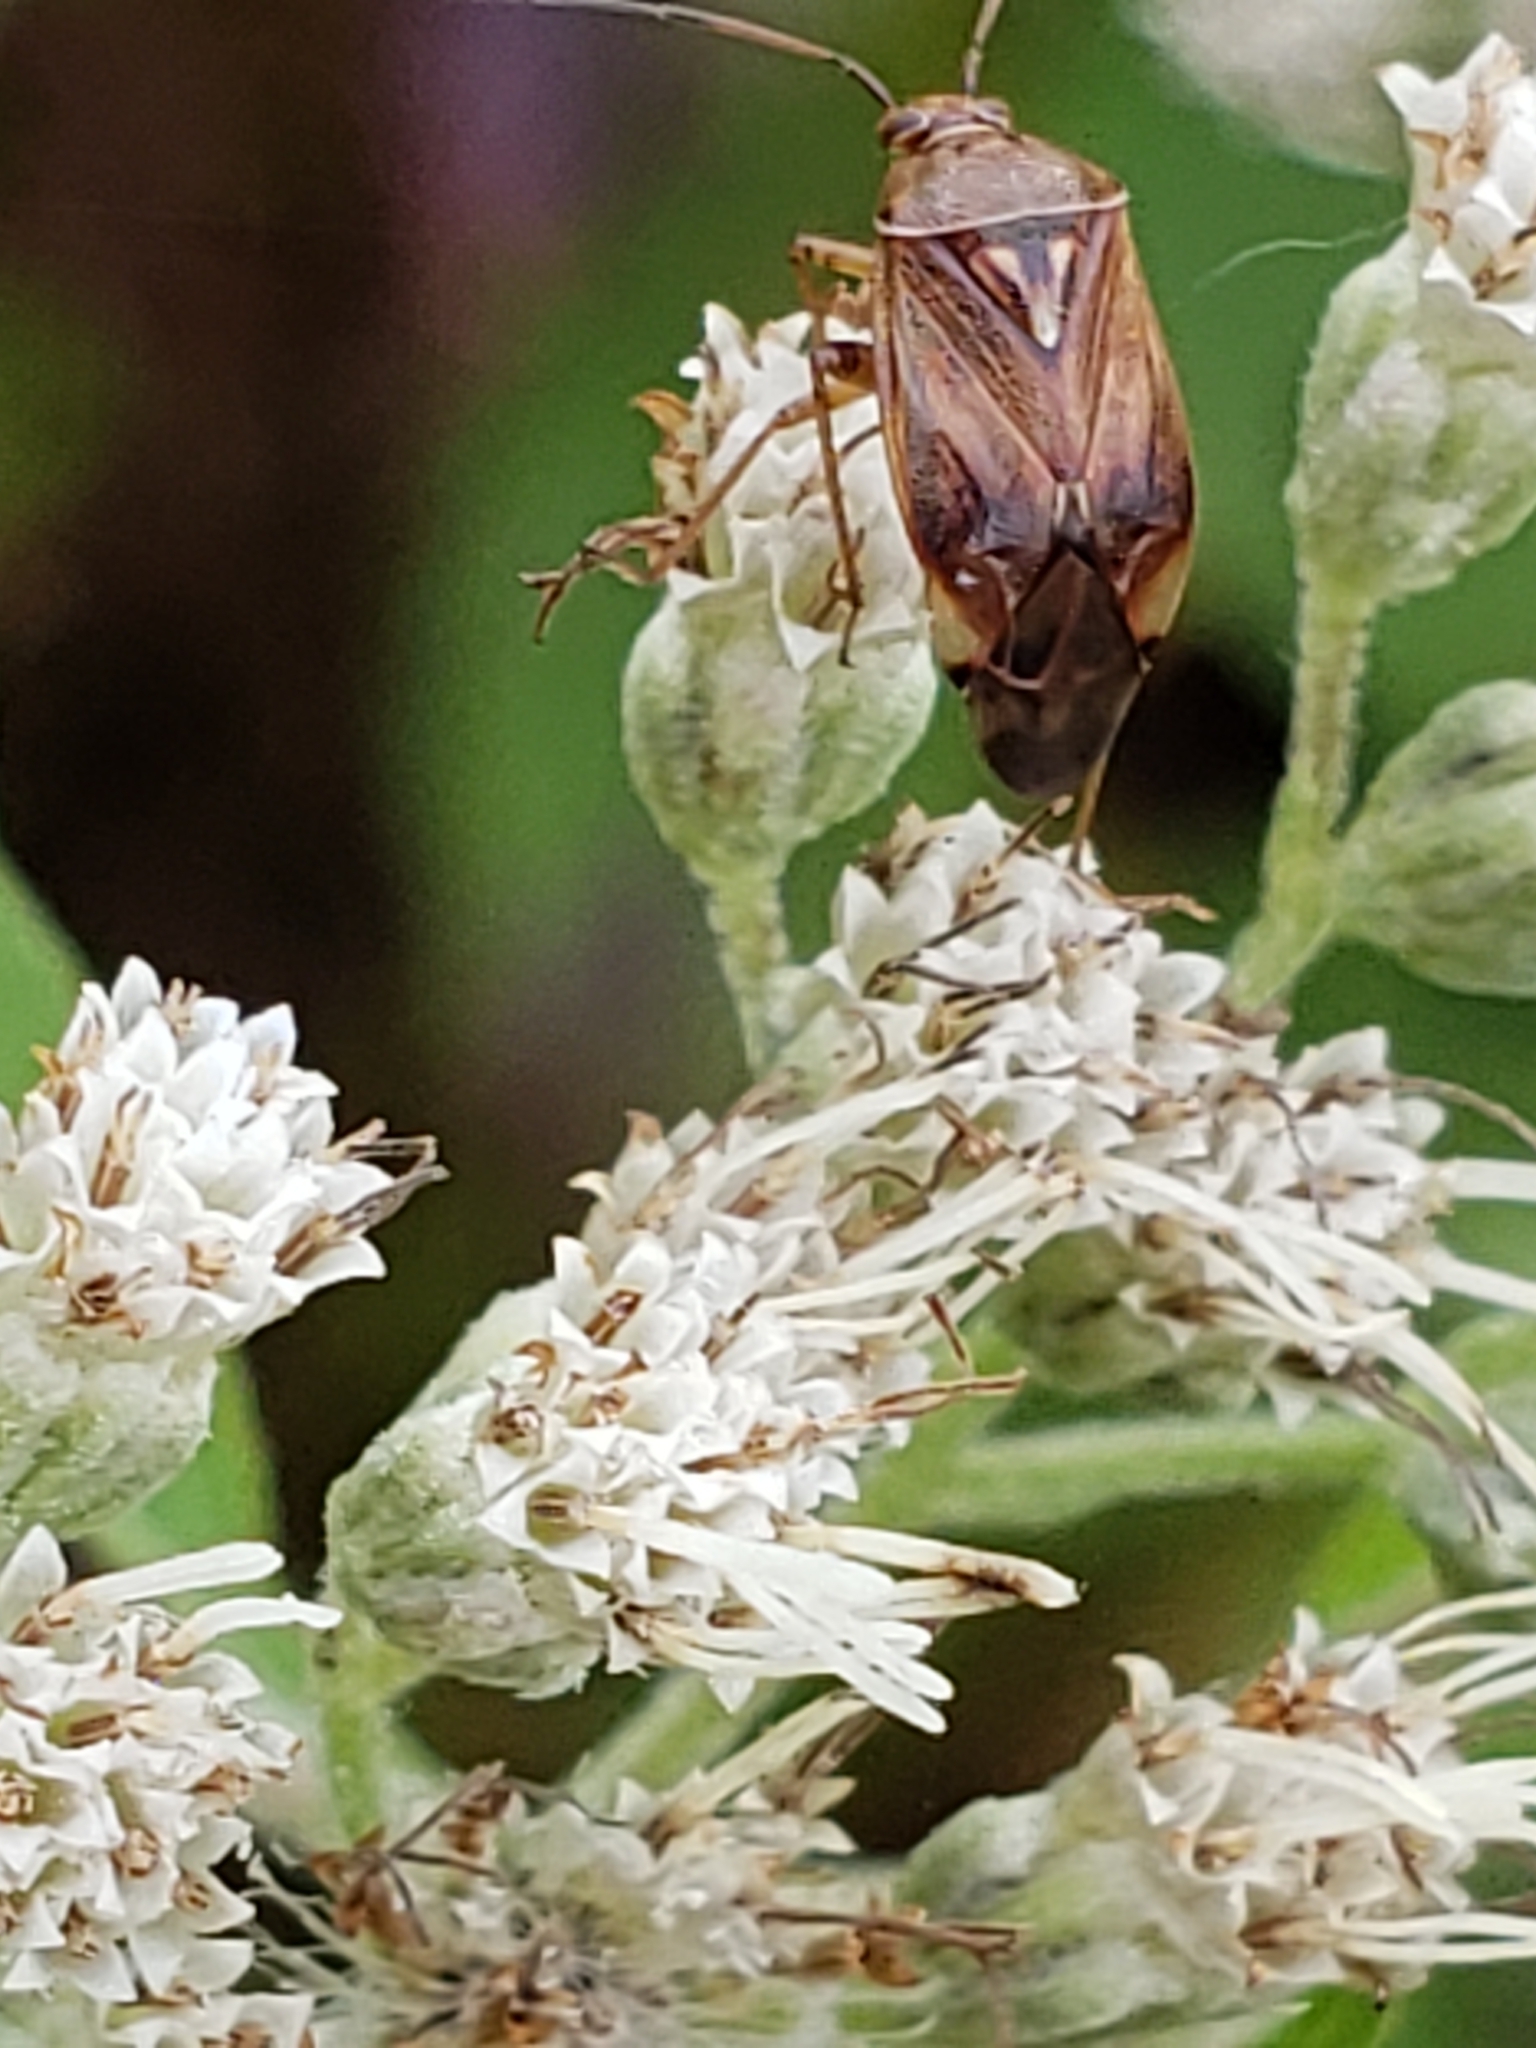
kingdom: Animalia
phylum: Arthropoda
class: Insecta
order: Hemiptera
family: Miridae
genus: Lygus
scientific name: Lygus lineolaris
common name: North american tarnished plant bug
